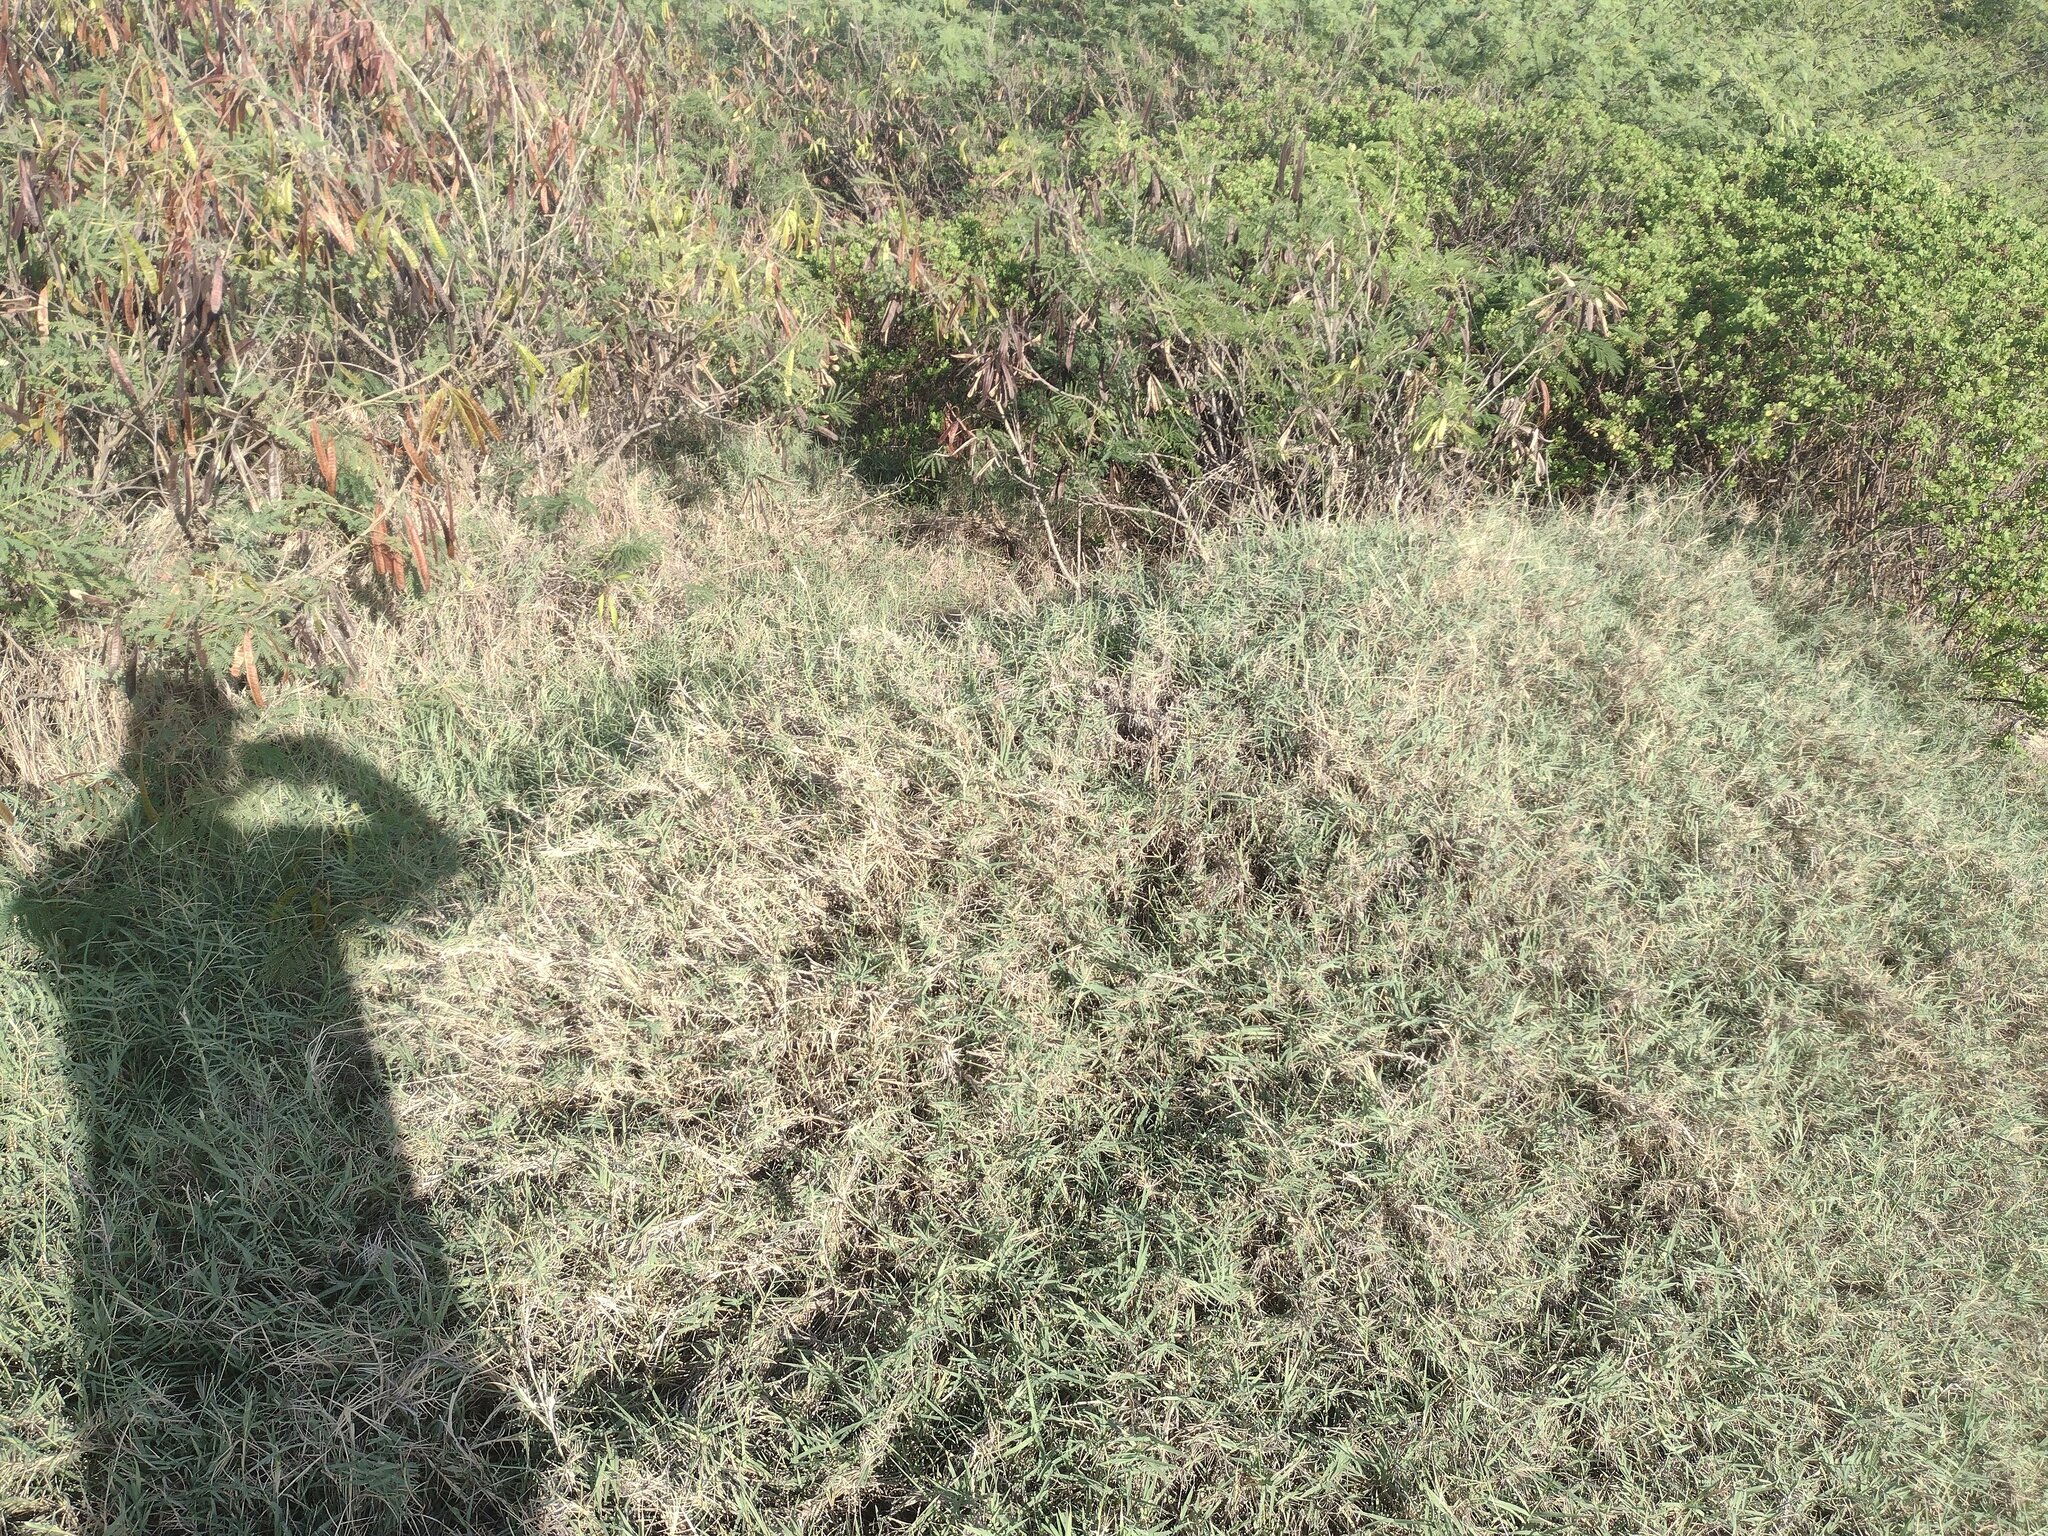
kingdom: Plantae
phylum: Tracheophyta
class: Liliopsida
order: Poales
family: Poaceae
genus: Cynodon
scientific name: Cynodon dactylon
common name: Bermuda grass
